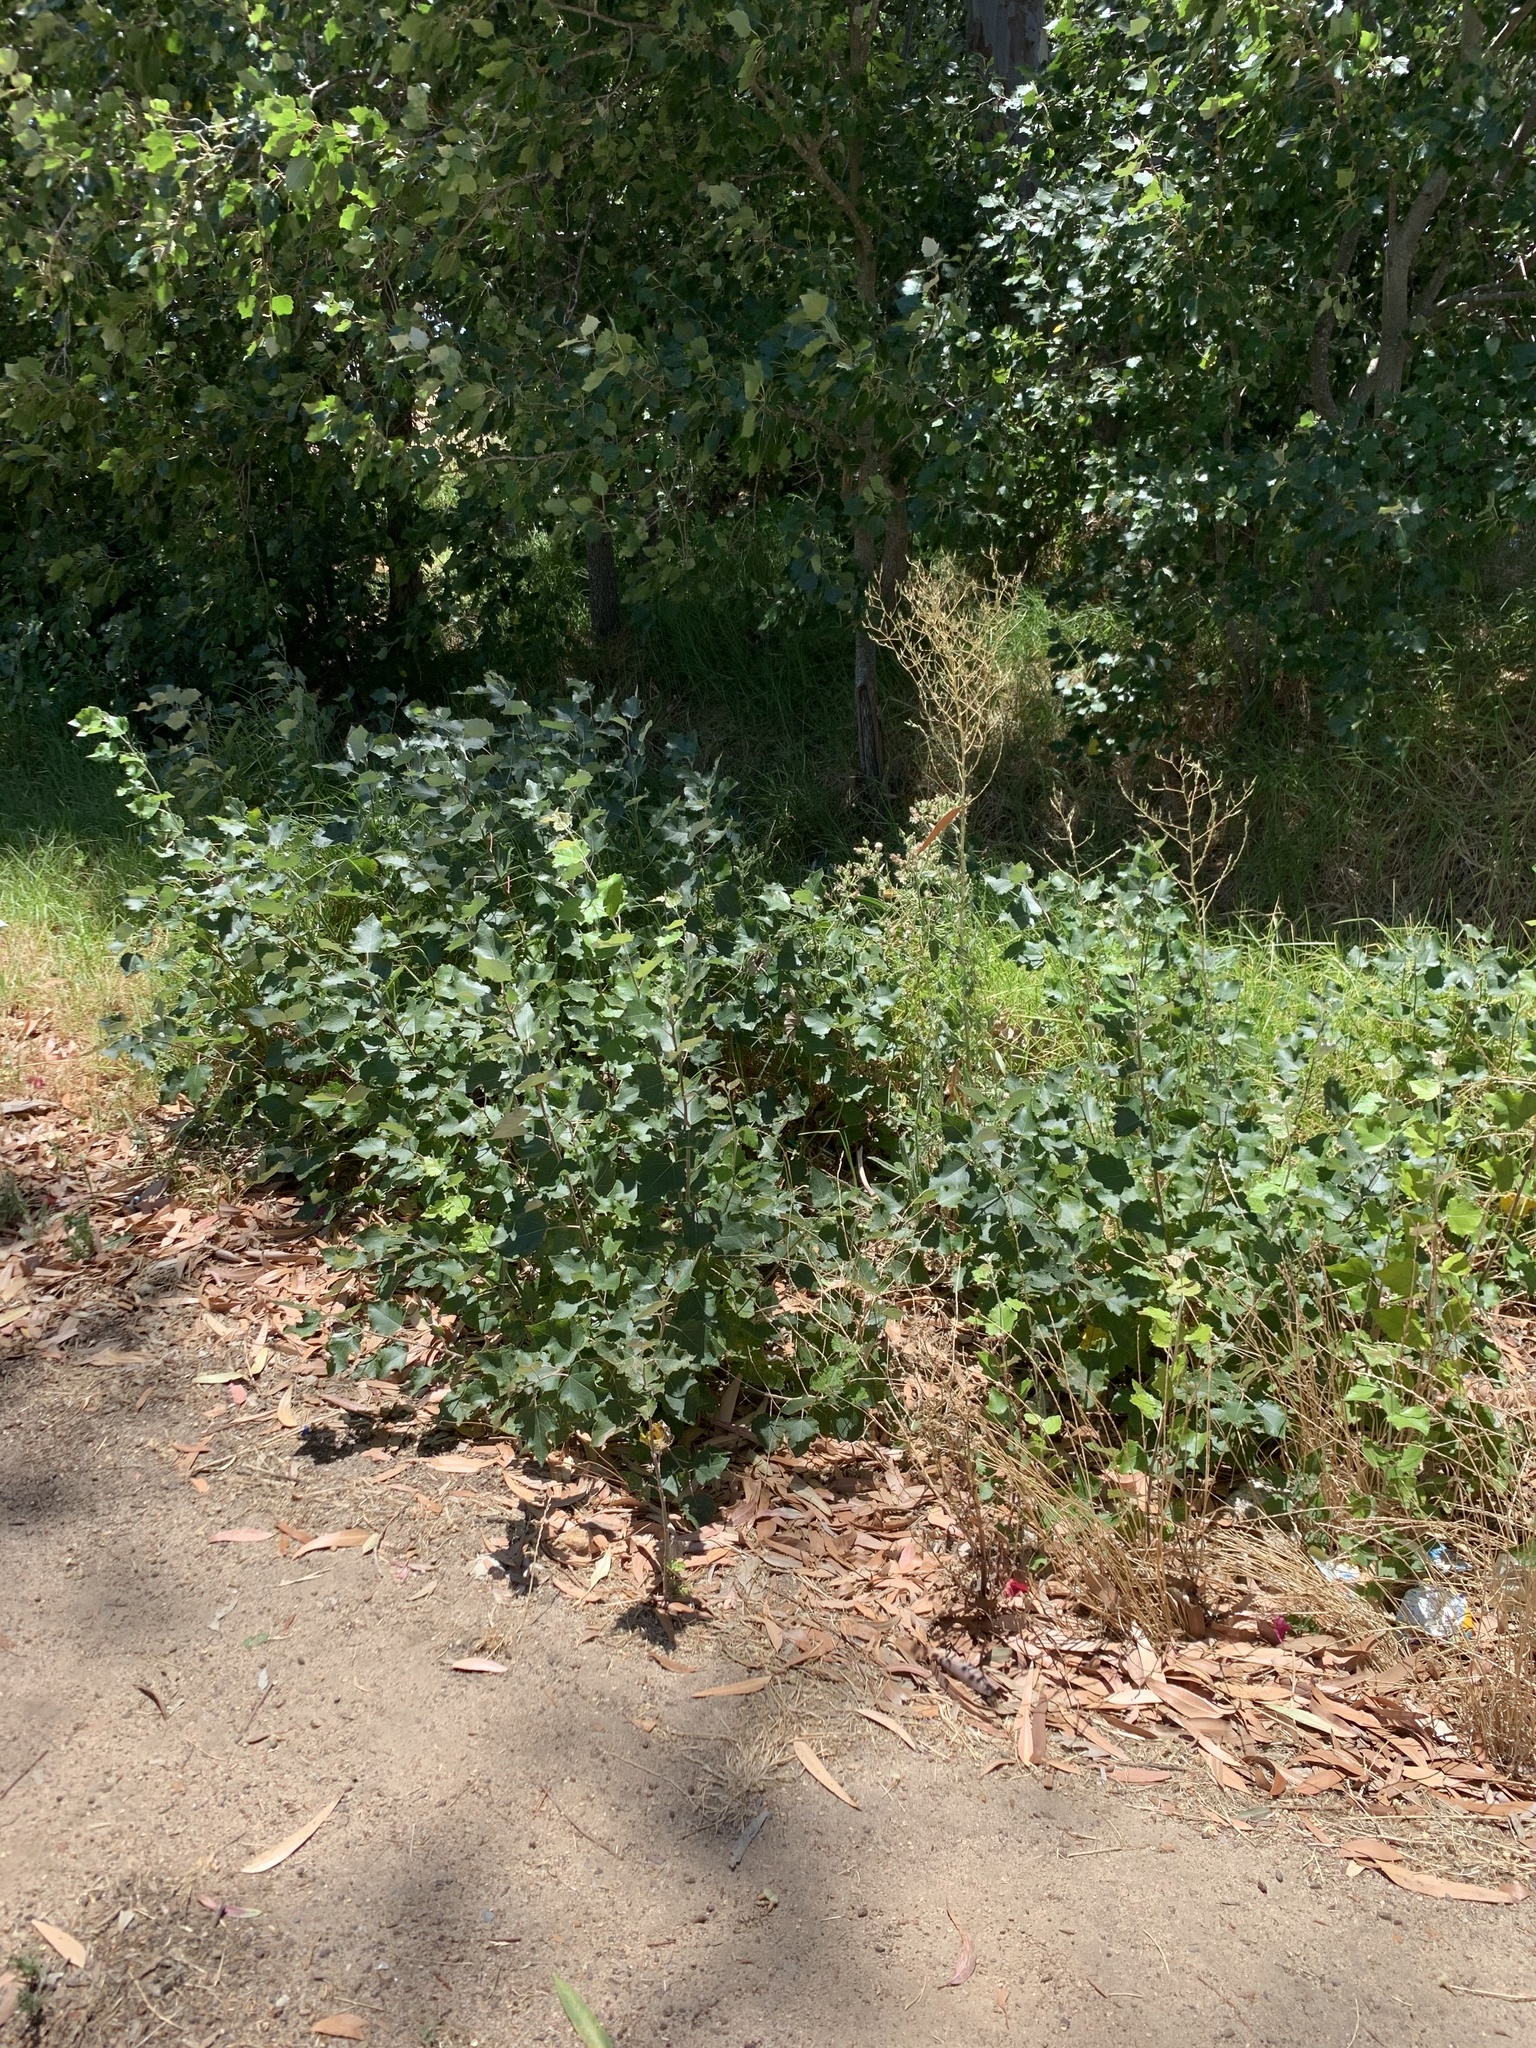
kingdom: Plantae
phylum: Tracheophyta
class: Magnoliopsida
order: Malpighiales
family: Salicaceae
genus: Populus
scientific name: Populus canescens
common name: Gray poplar
